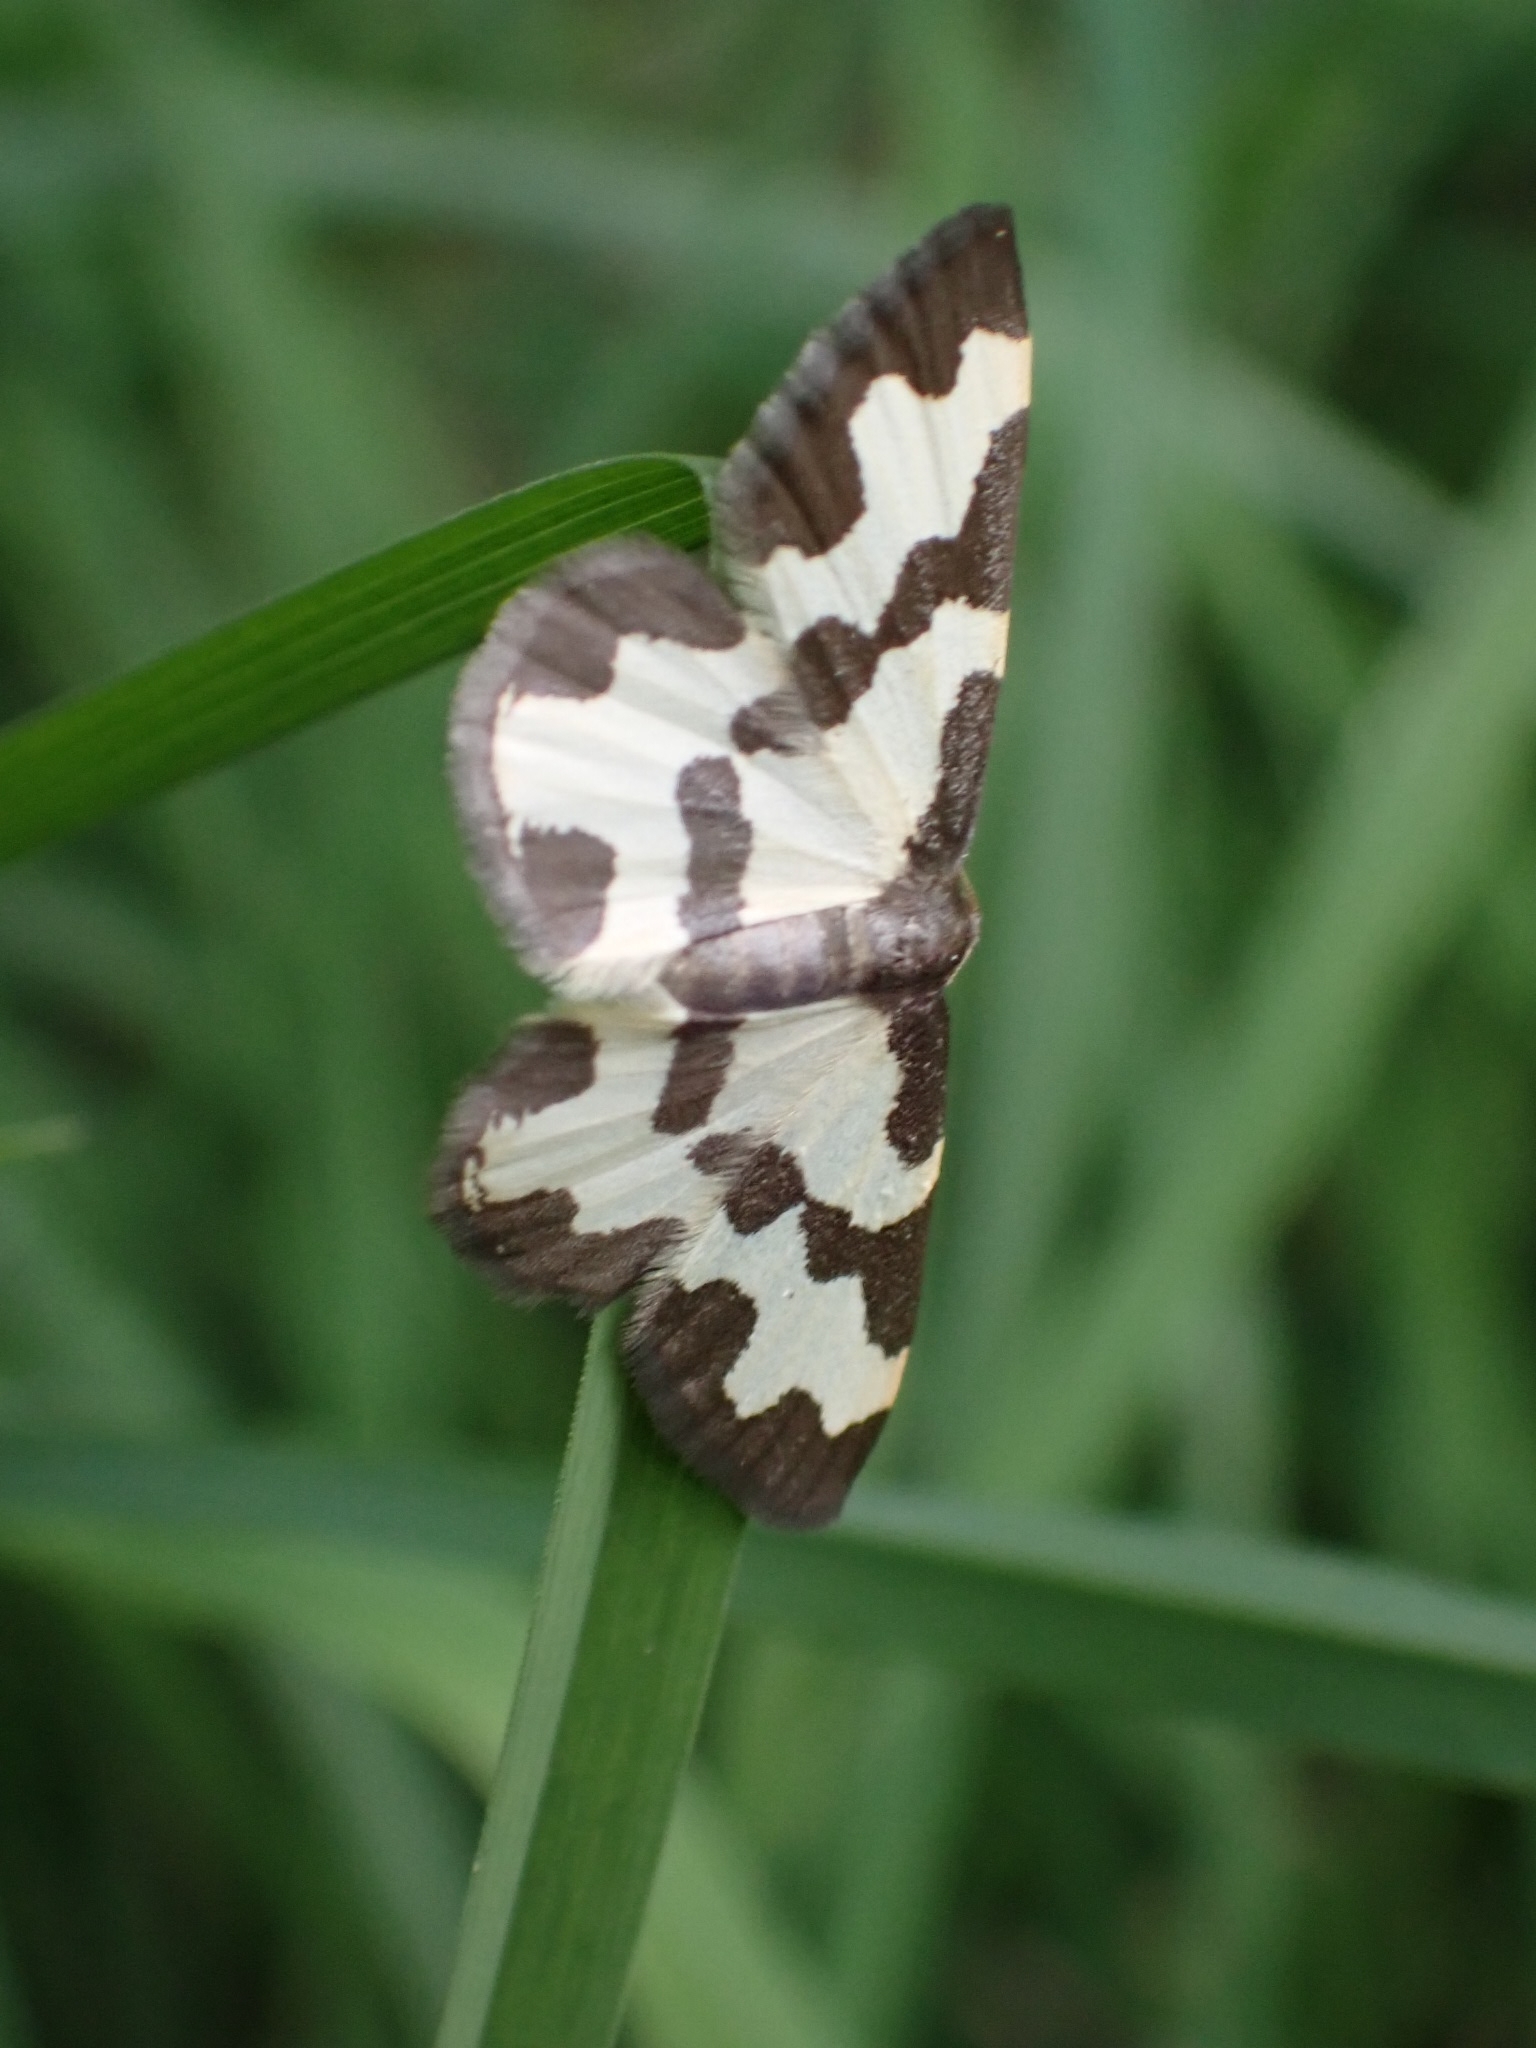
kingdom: Animalia
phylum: Arthropoda
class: Insecta
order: Lepidoptera
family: Geometridae
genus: Lomaspilis
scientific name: Lomaspilis marginata
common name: Clouded border
